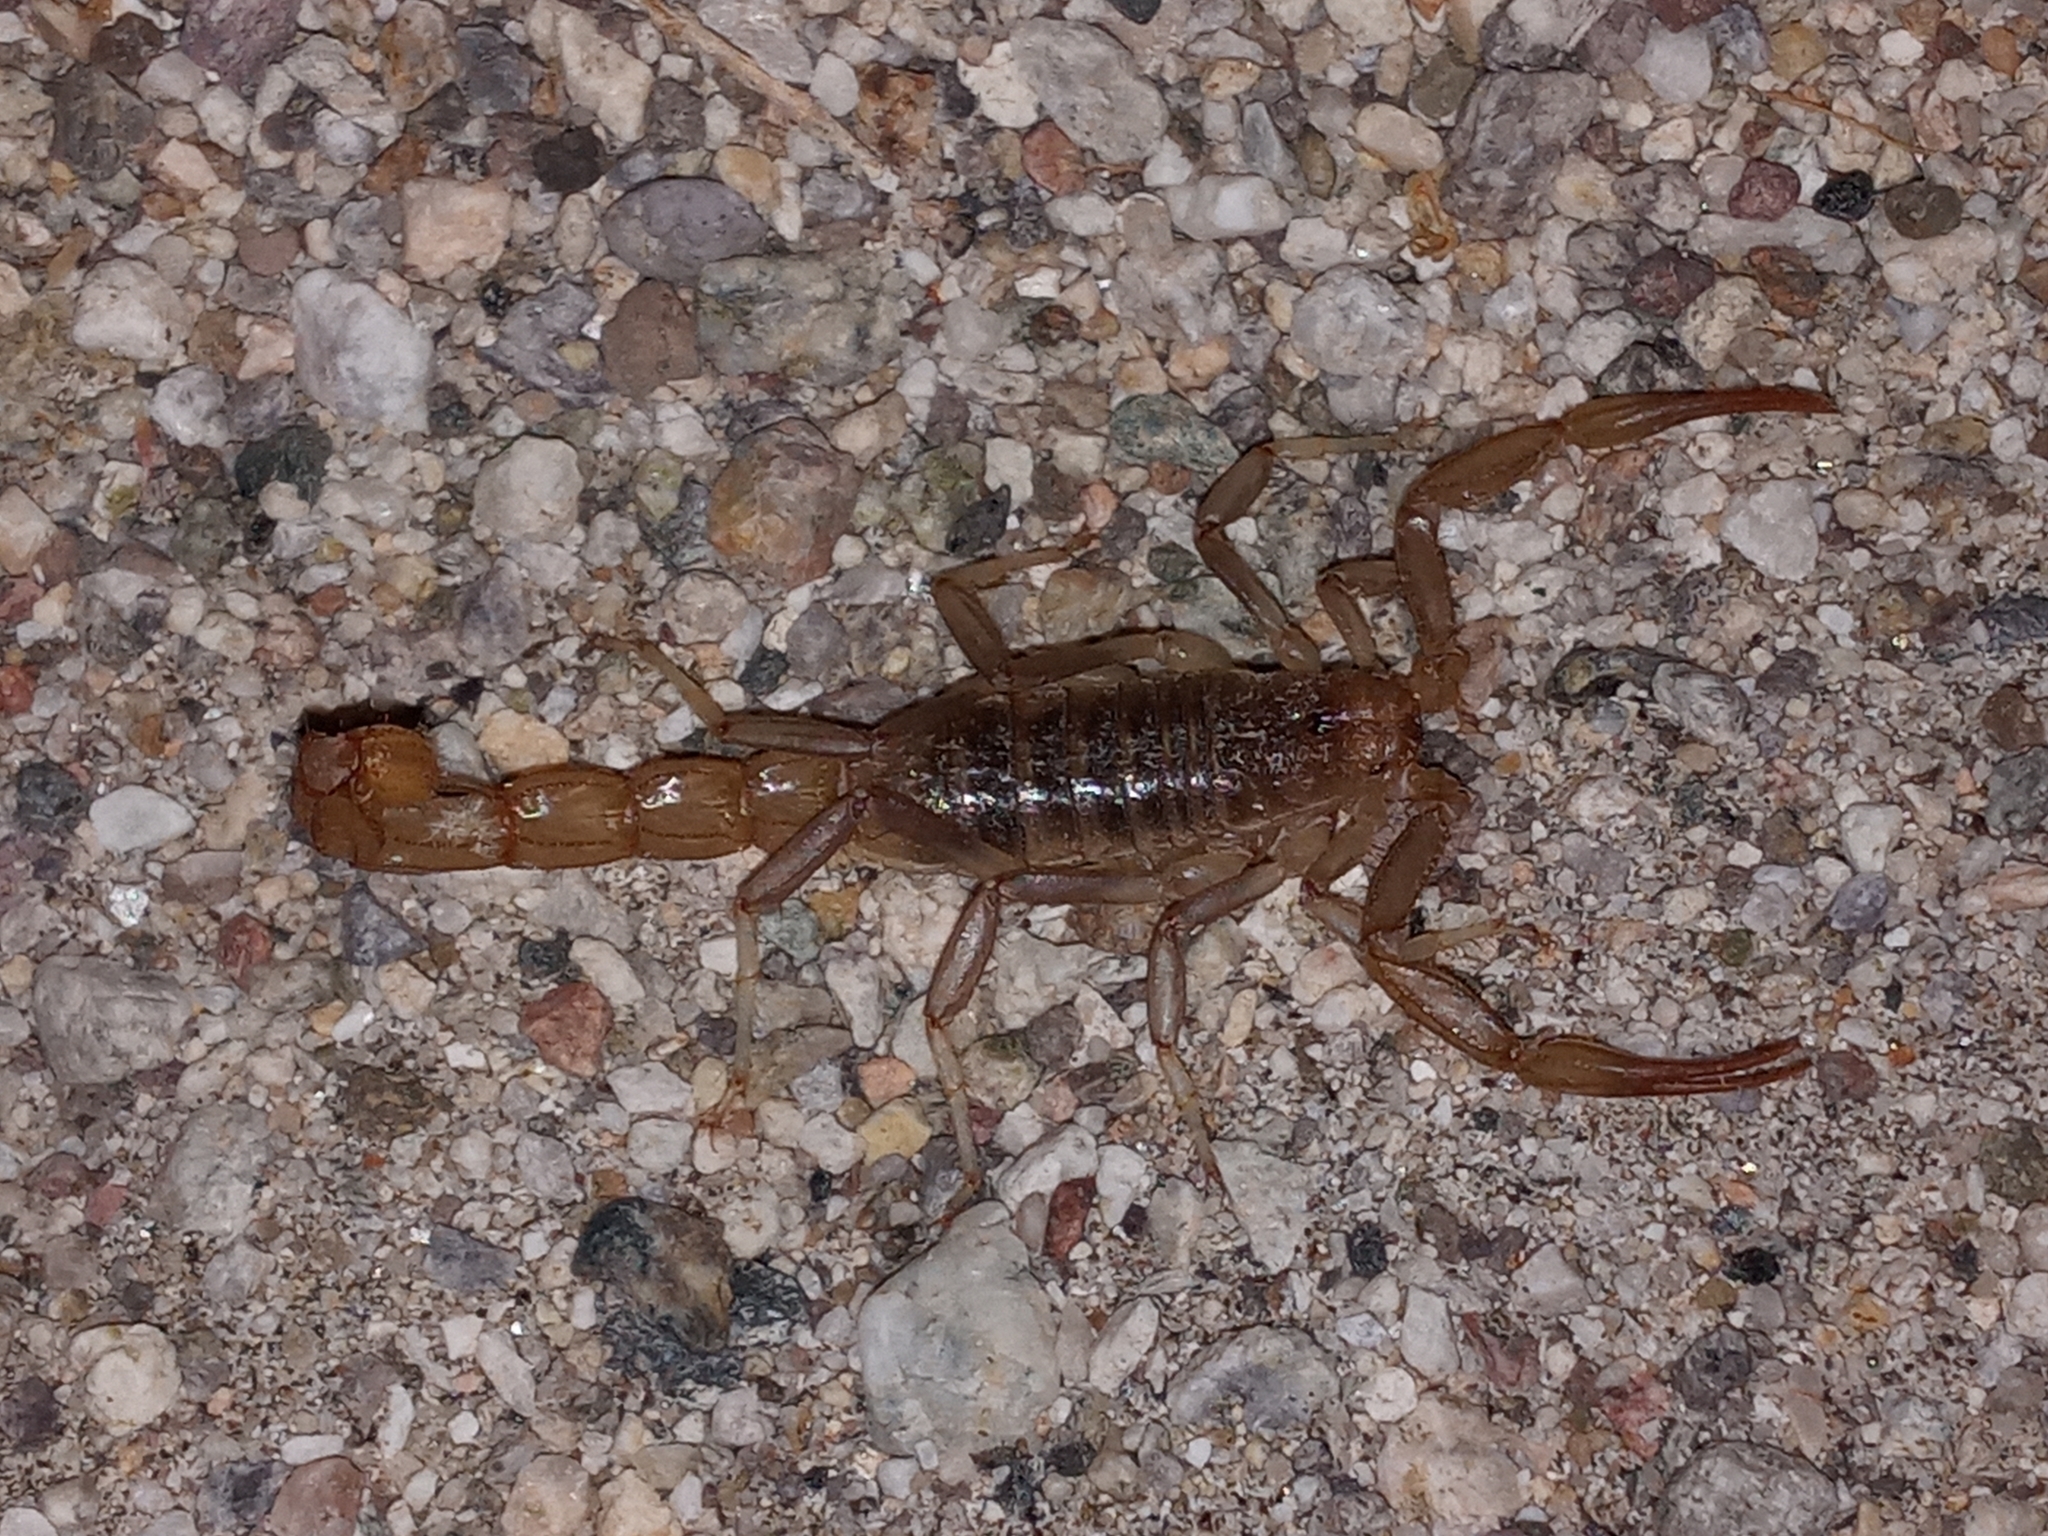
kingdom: Animalia
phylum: Arthropoda
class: Arachnida
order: Scorpiones
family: Vaejovidae
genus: Paravaejovis
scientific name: Paravaejovis puritanus
